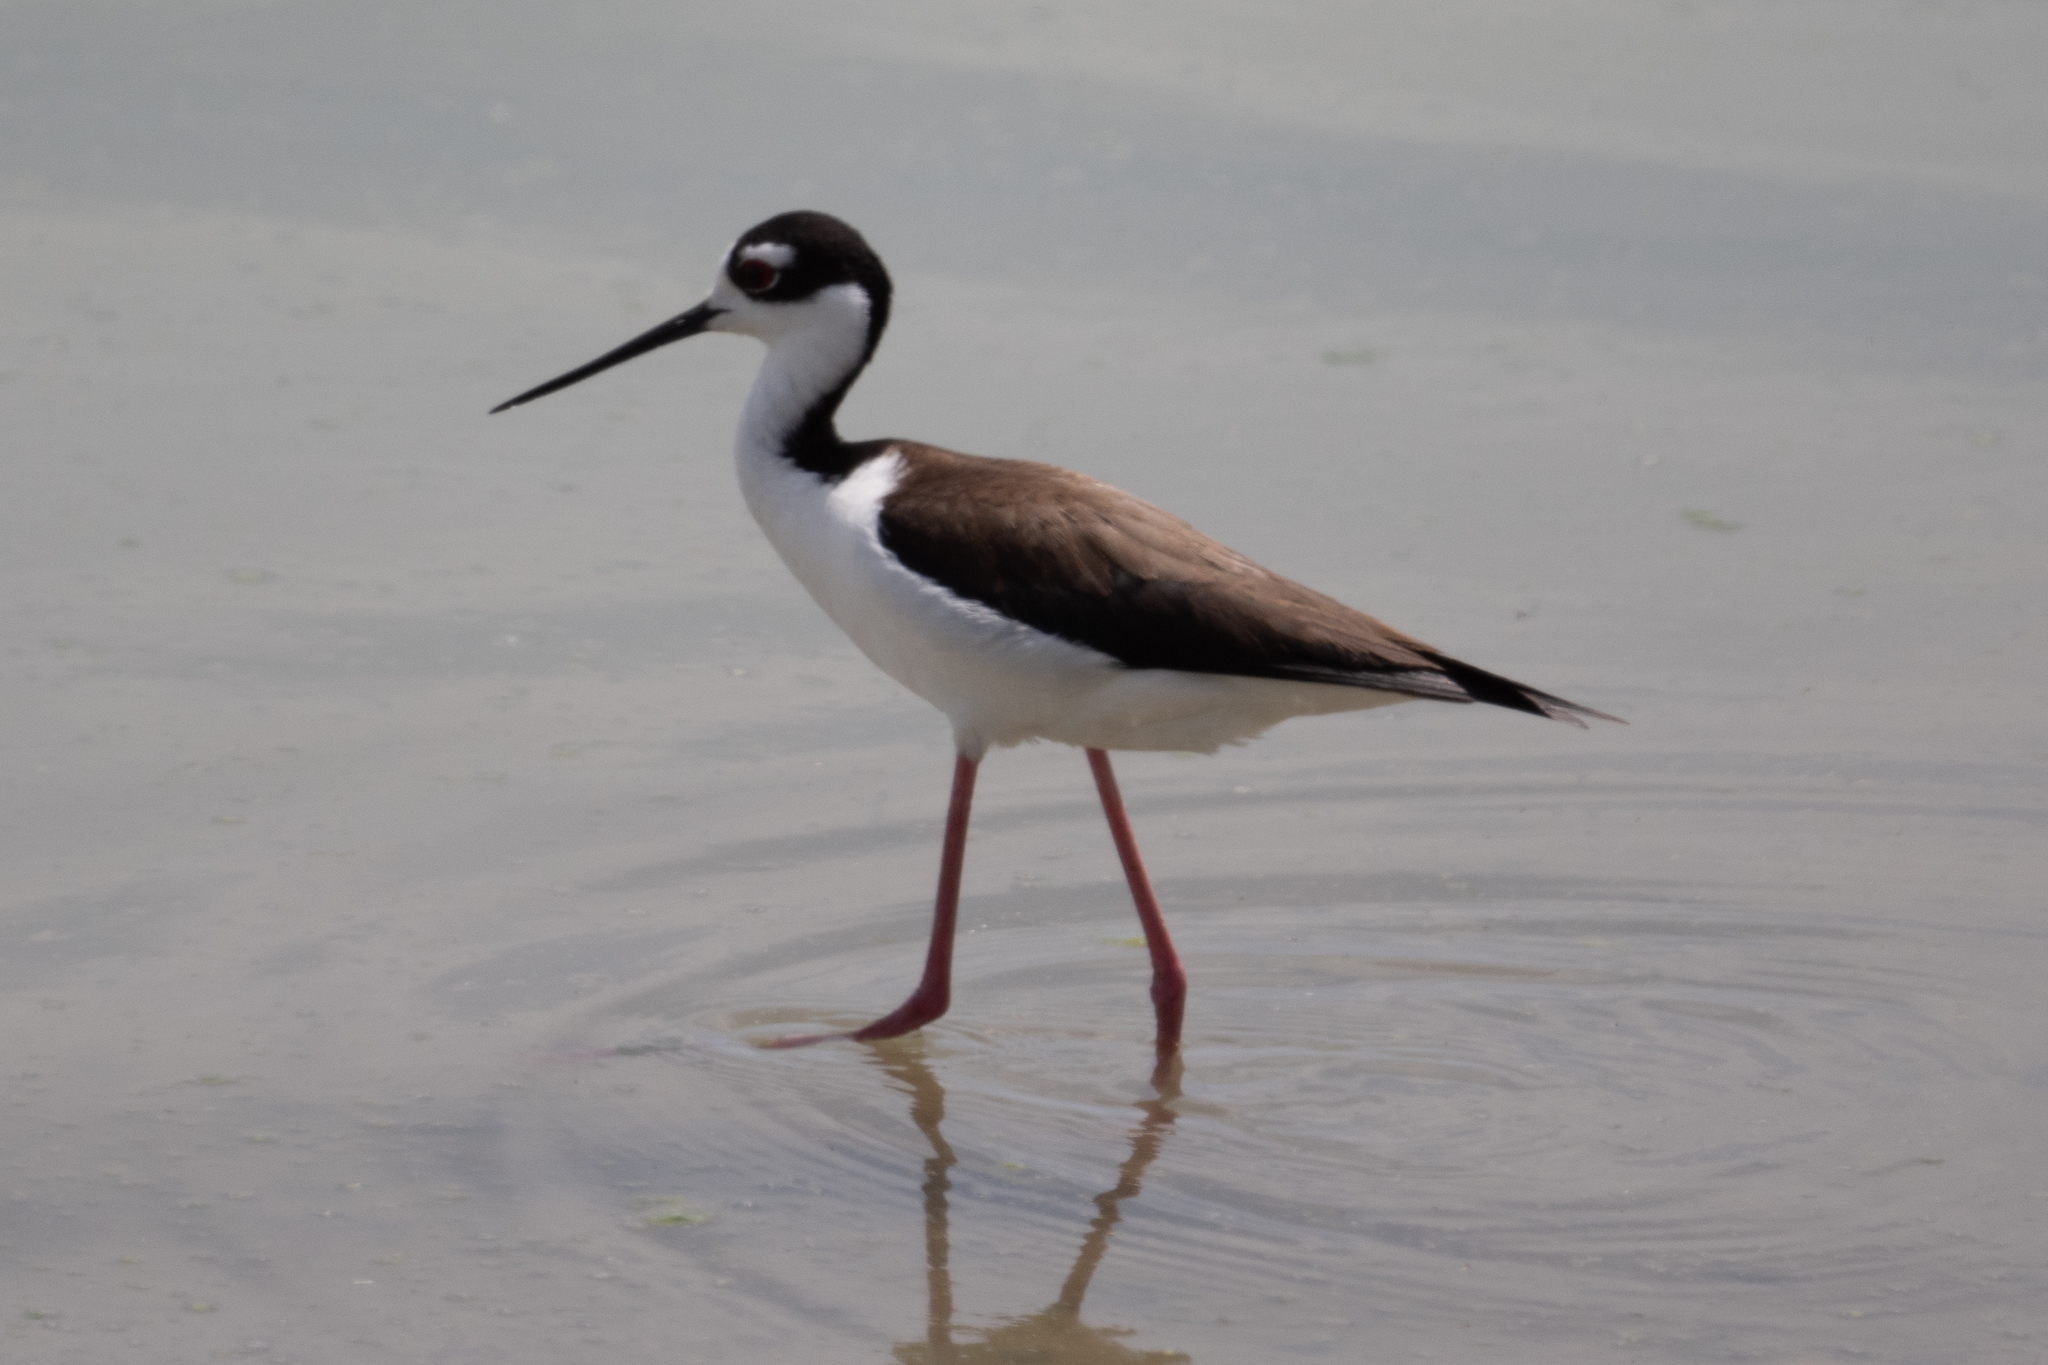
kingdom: Animalia
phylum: Chordata
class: Aves
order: Charadriiformes
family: Recurvirostridae
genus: Himantopus
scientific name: Himantopus mexicanus
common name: Black-necked stilt
